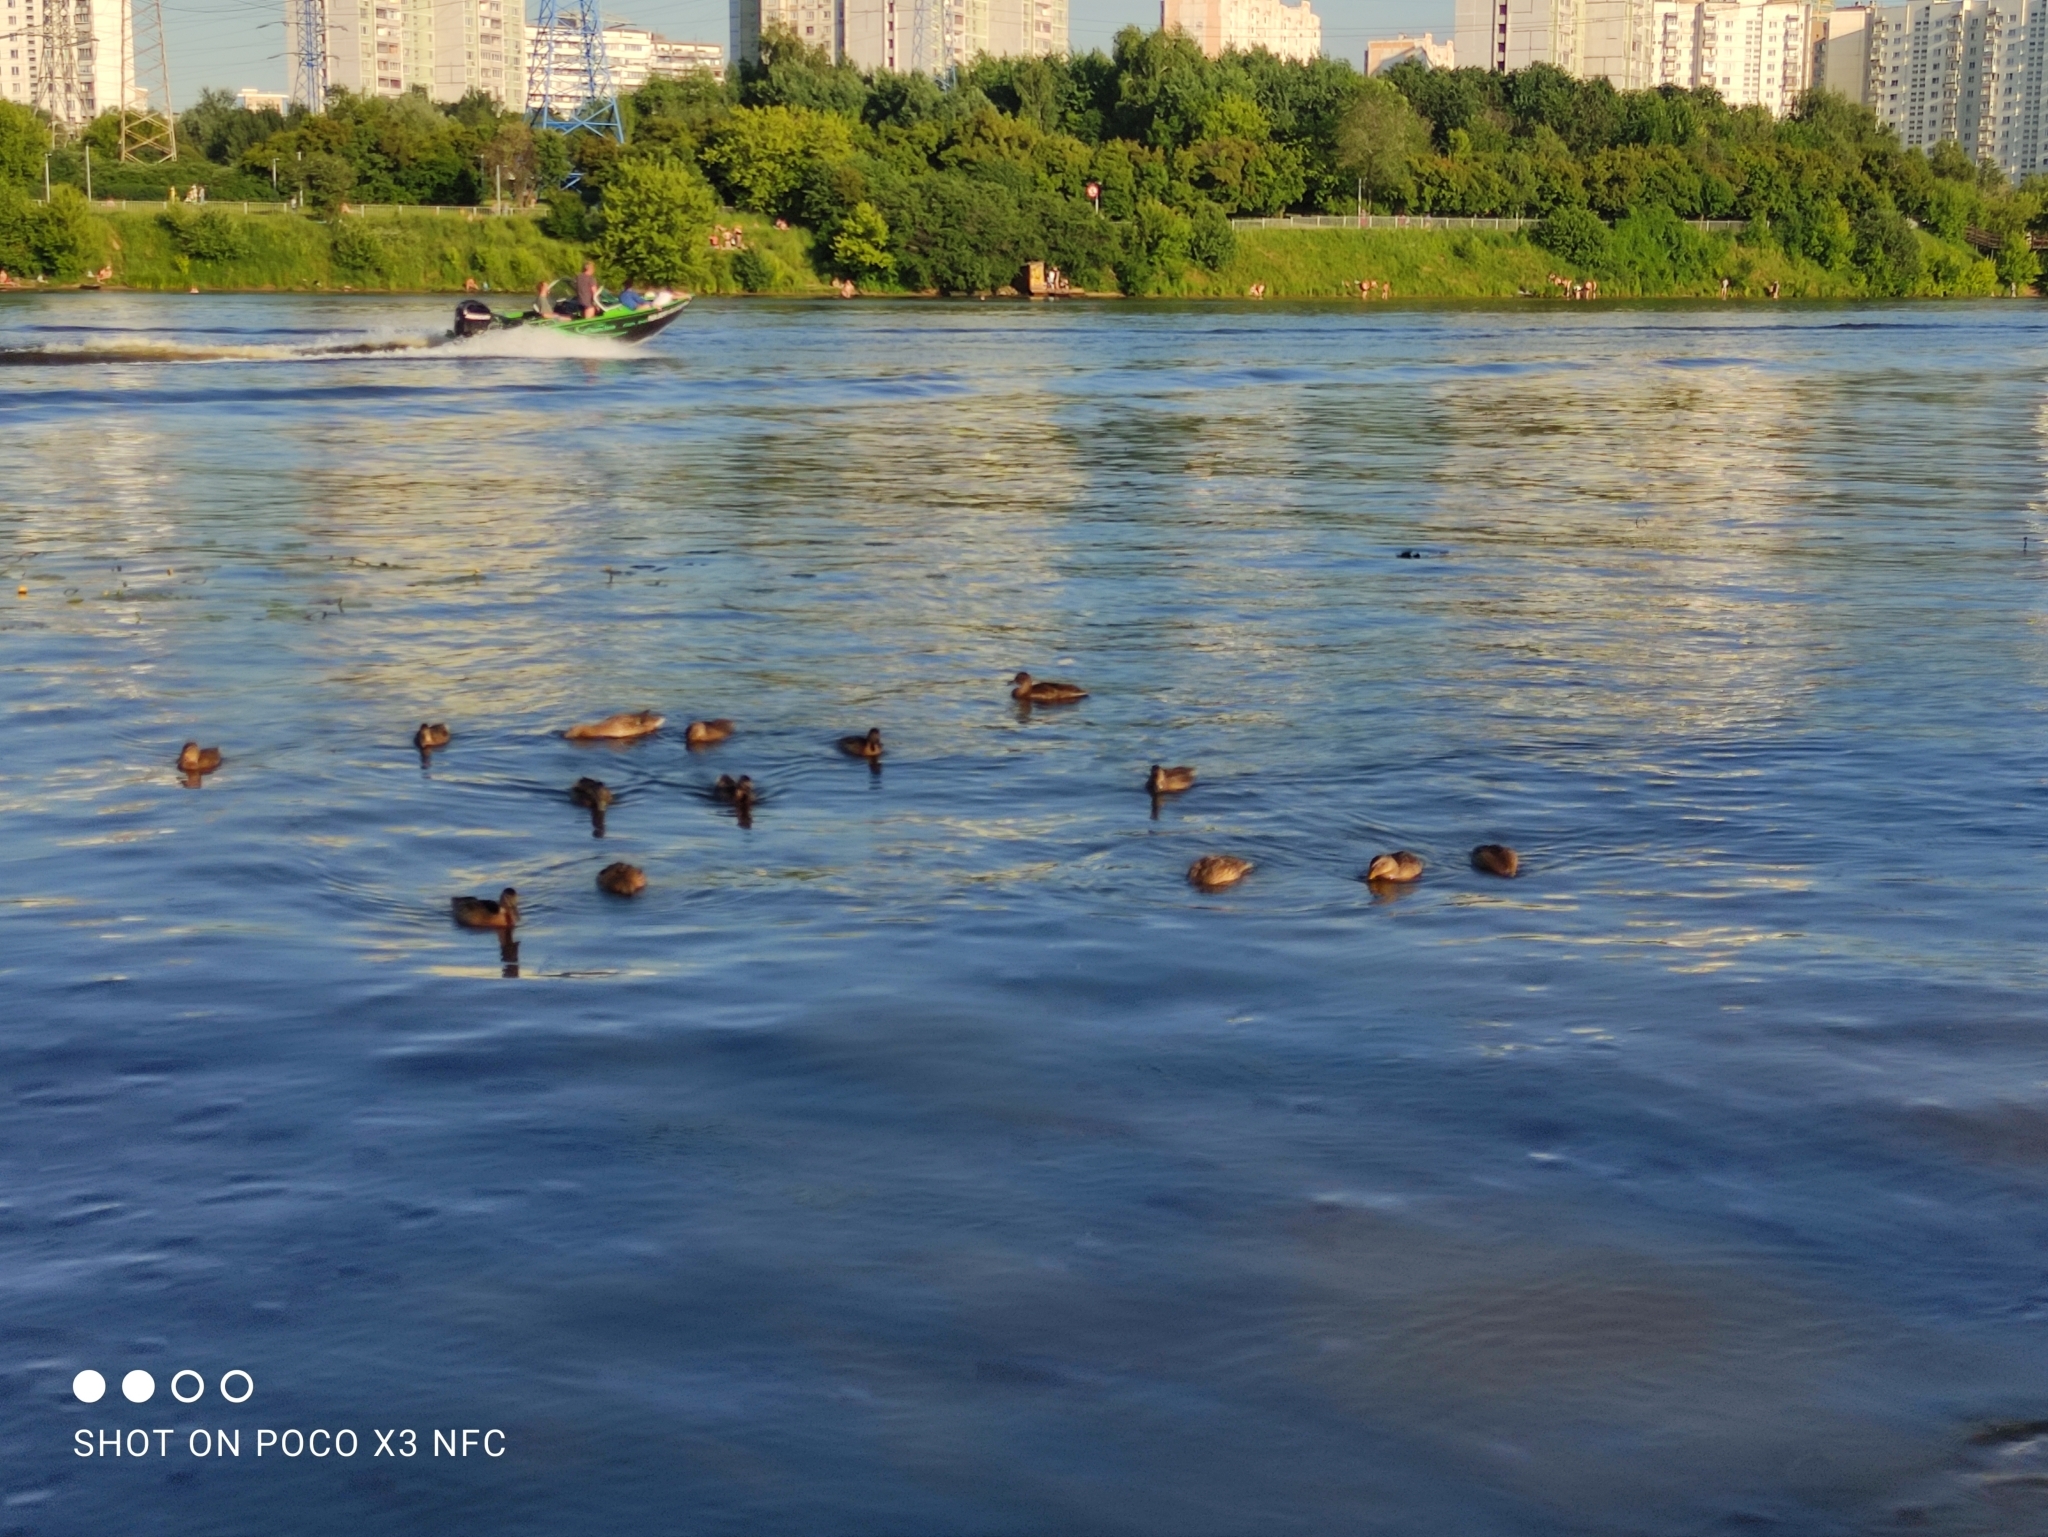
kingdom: Animalia
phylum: Chordata
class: Aves
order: Anseriformes
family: Anatidae
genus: Anas
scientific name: Anas platyrhynchos
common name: Mallard
